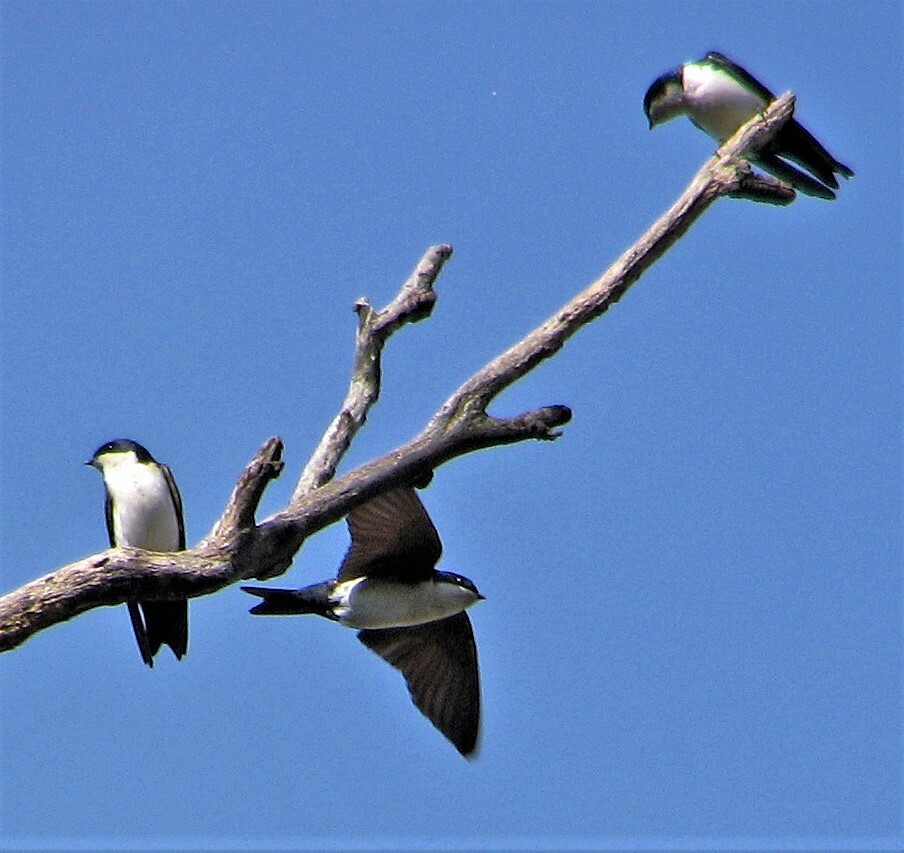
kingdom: Animalia
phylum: Chordata
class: Aves
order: Passeriformes
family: Hirundinidae
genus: Notiochelidon
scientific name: Notiochelidon cyanoleuca
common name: Blue-and-white swallow
